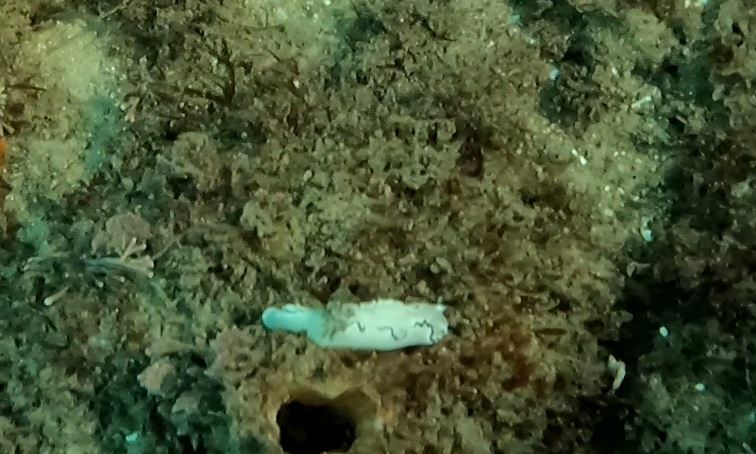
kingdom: Animalia
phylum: Mollusca
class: Gastropoda
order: Nudibranchia
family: Chromodorididae
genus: Doriprismatica
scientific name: Doriprismatica atromarginata
